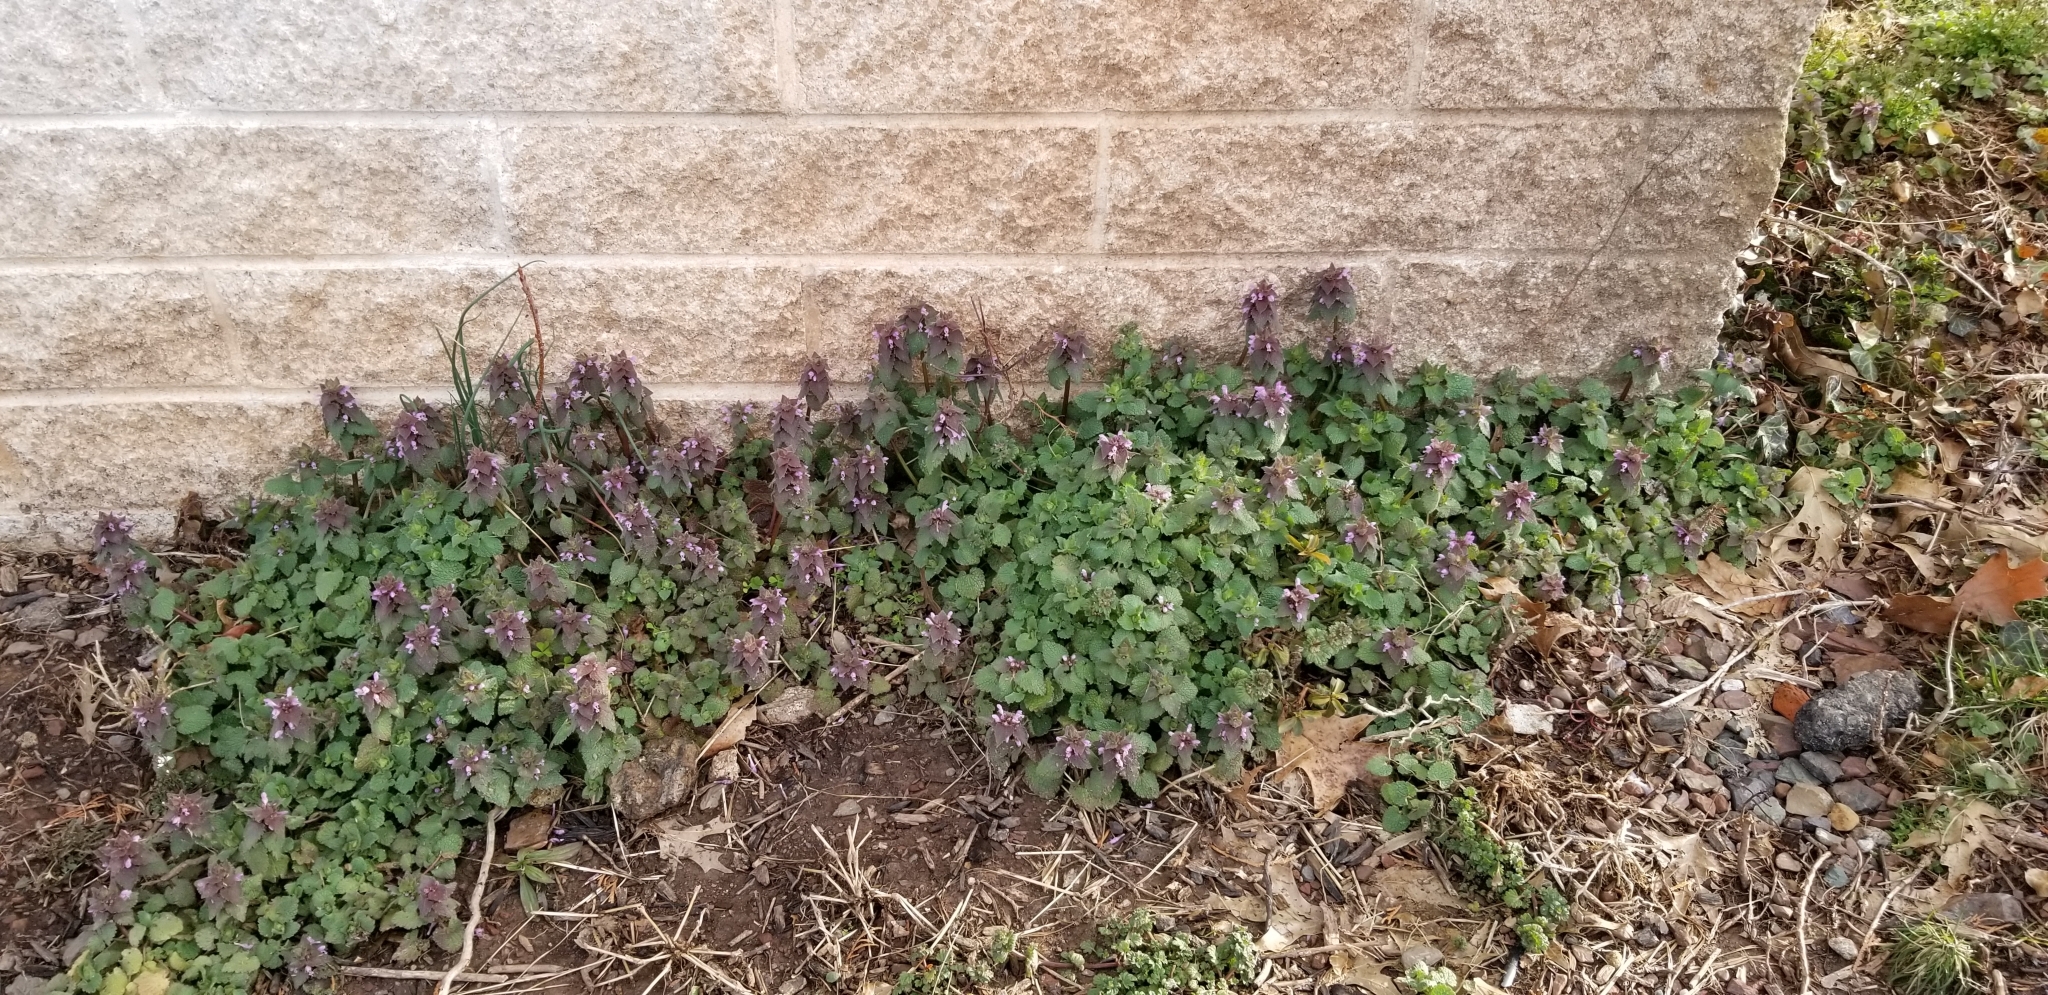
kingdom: Plantae
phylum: Tracheophyta
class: Magnoliopsida
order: Lamiales
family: Lamiaceae
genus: Lamium
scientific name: Lamium purpureum
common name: Red dead-nettle
